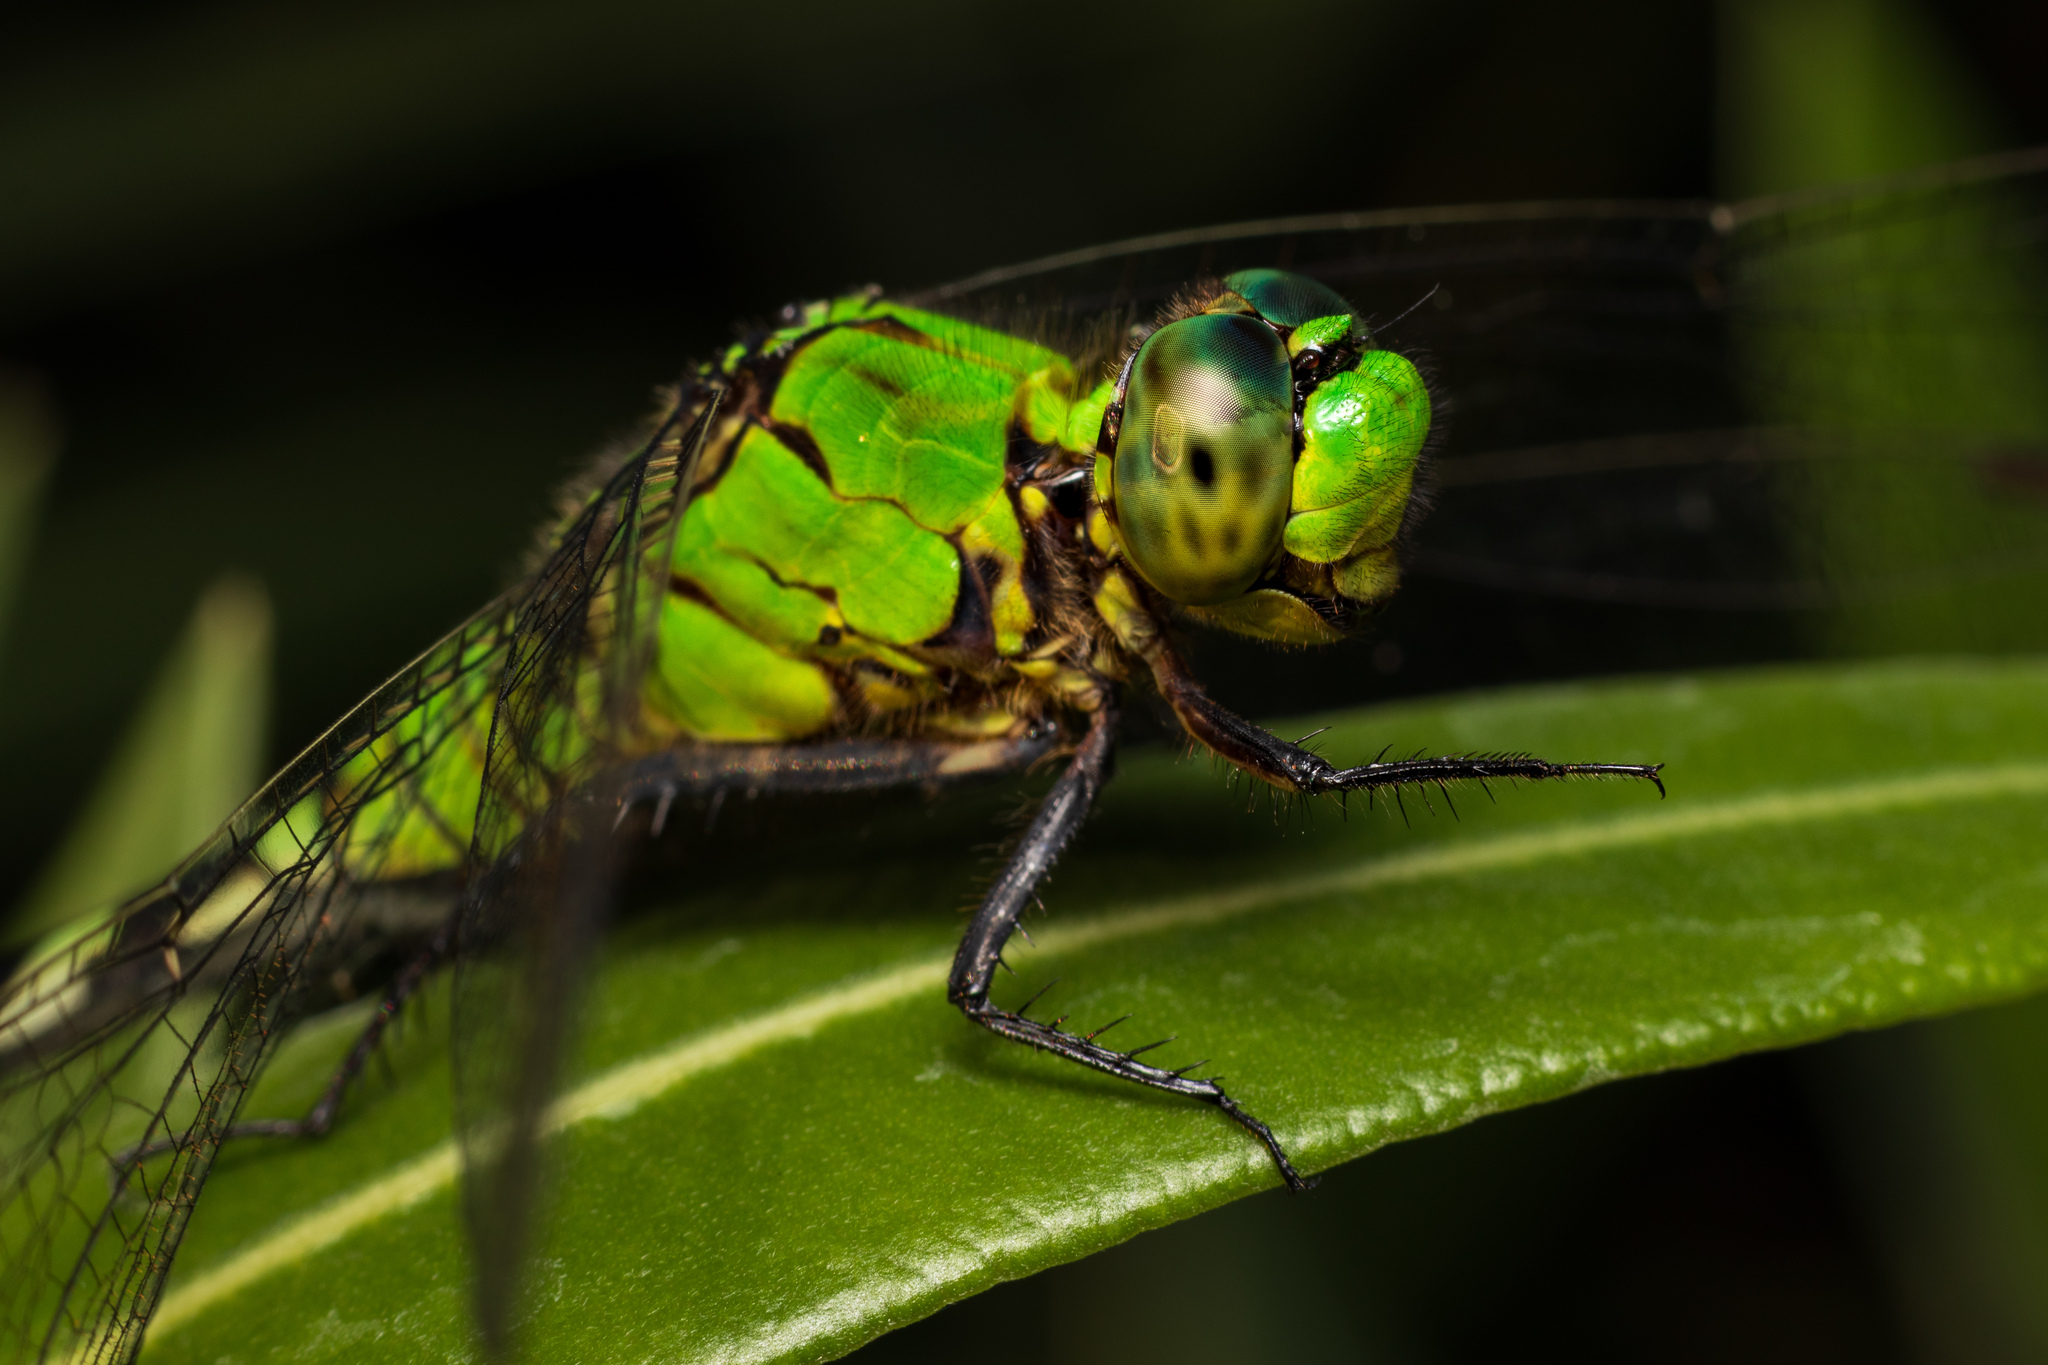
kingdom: Animalia
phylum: Arthropoda
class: Insecta
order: Odonata
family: Libellulidae
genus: Erythemis
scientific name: Erythemis simplicicollis
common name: Eastern pondhawk
